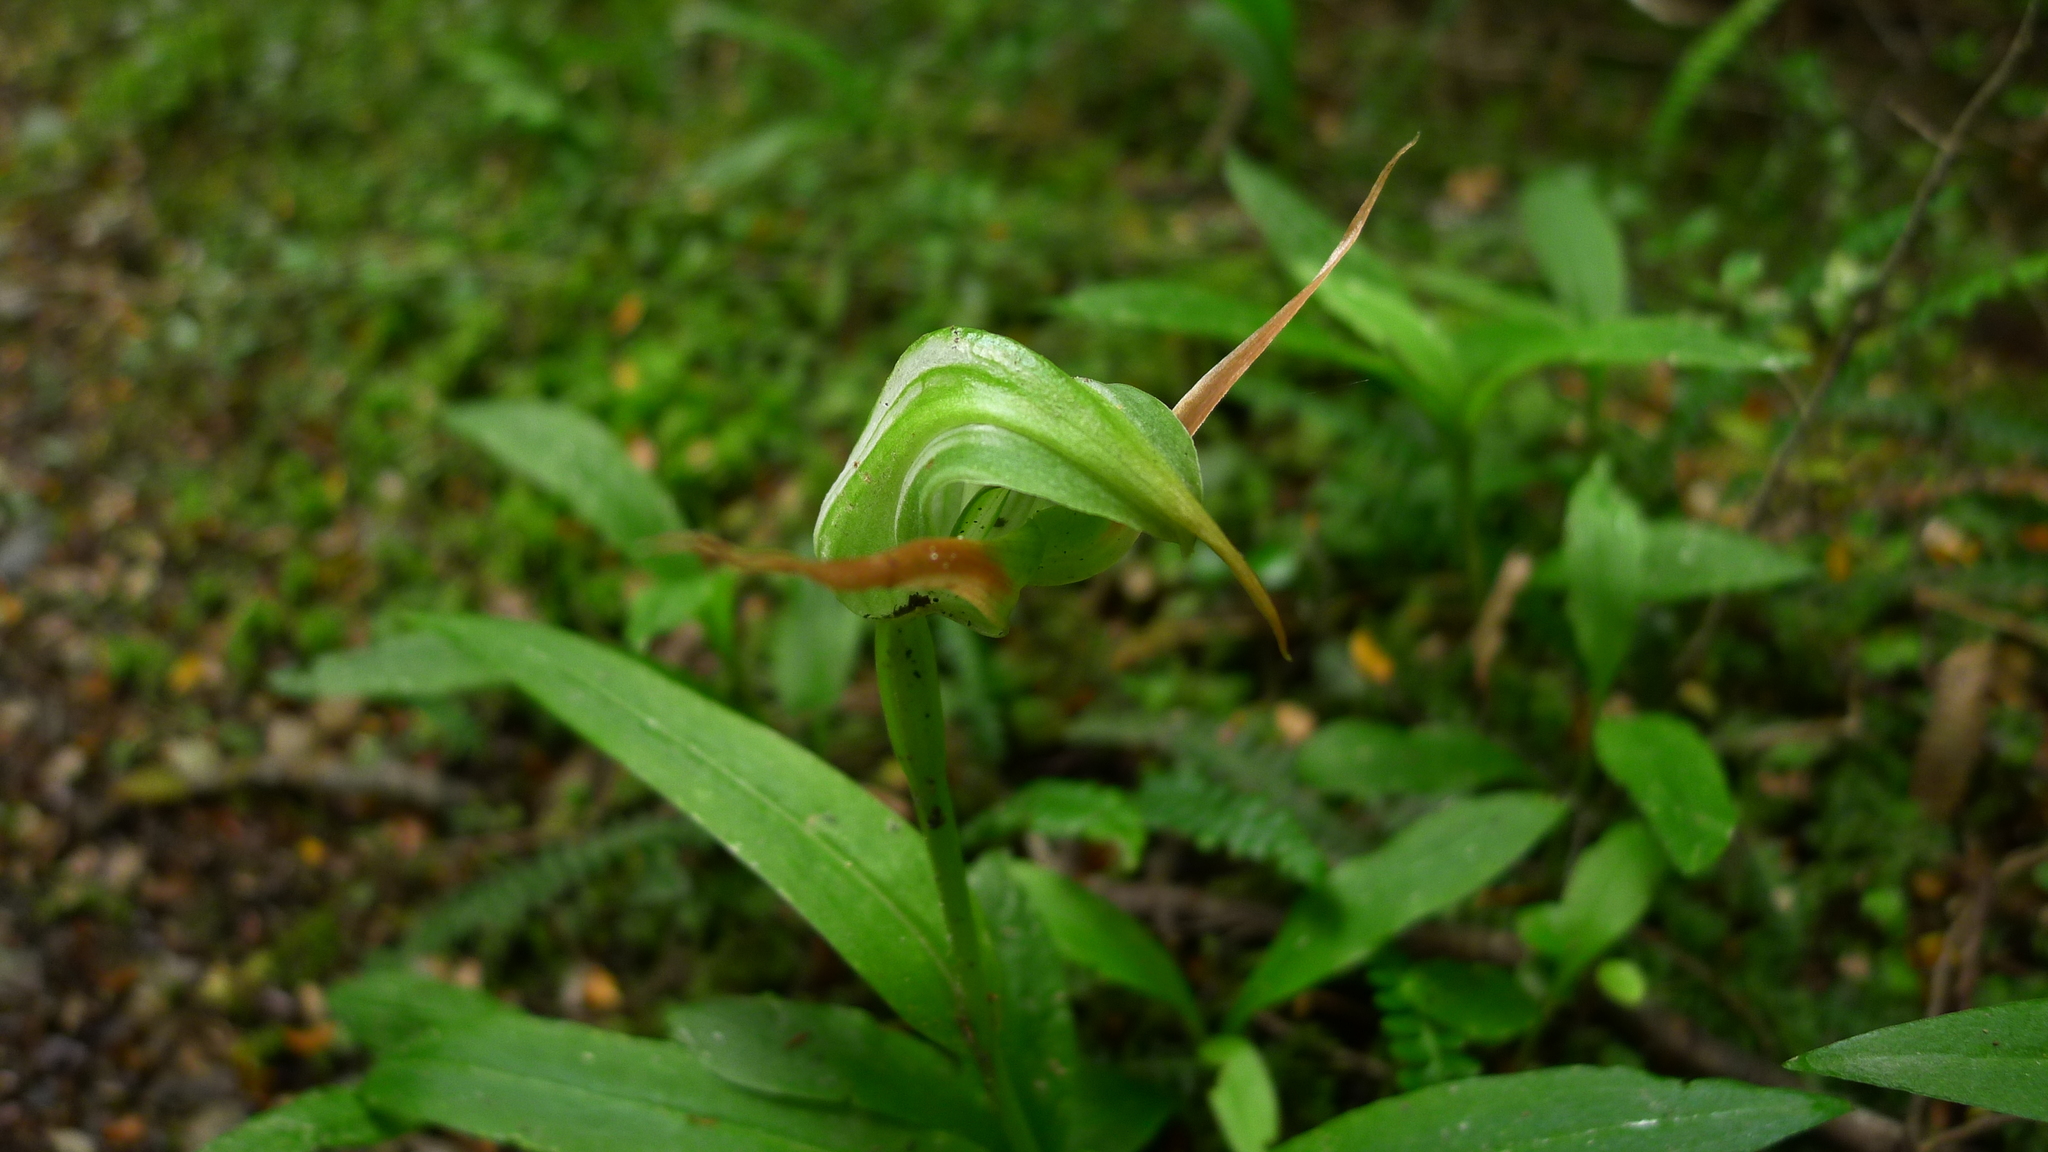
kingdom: Plantae
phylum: Tracheophyta
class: Liliopsida
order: Asparagales
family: Orchidaceae
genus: Pterostylis
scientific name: Pterostylis australis
